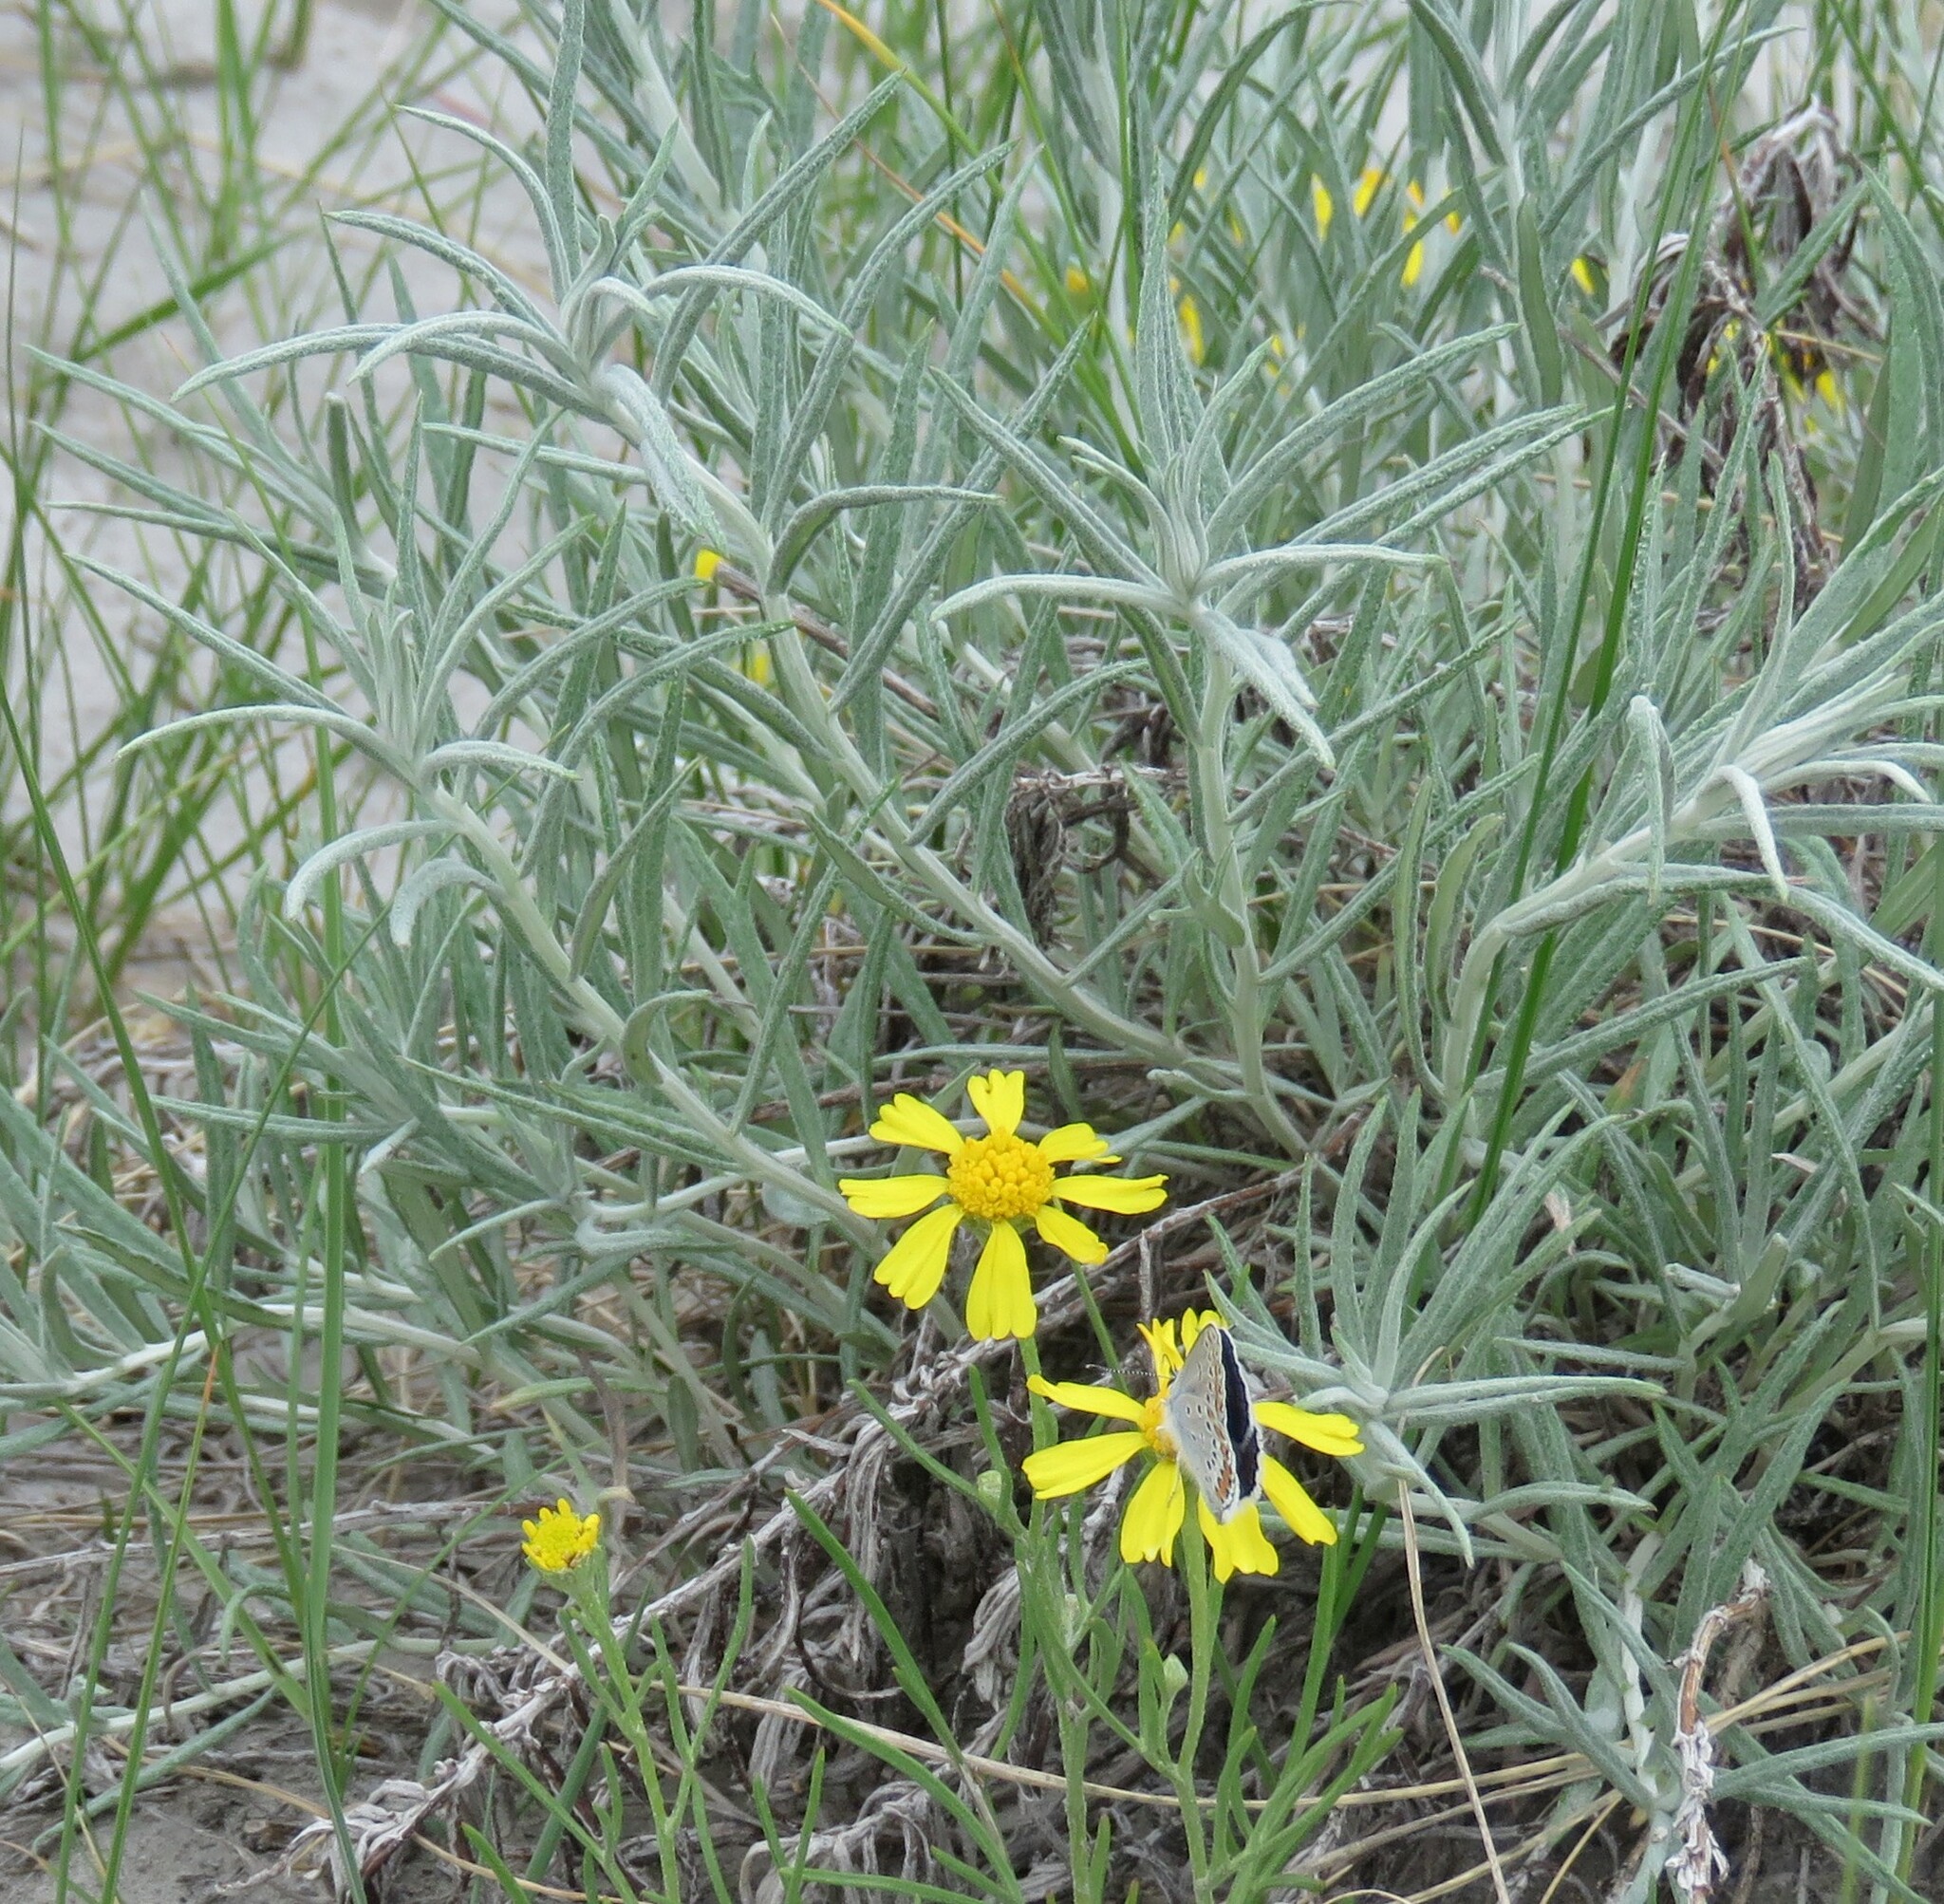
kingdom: Animalia
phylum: Arthropoda
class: Insecta
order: Lepidoptera
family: Lycaenidae
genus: Lycaeides
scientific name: Lycaeides melissa
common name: Melissa blue
